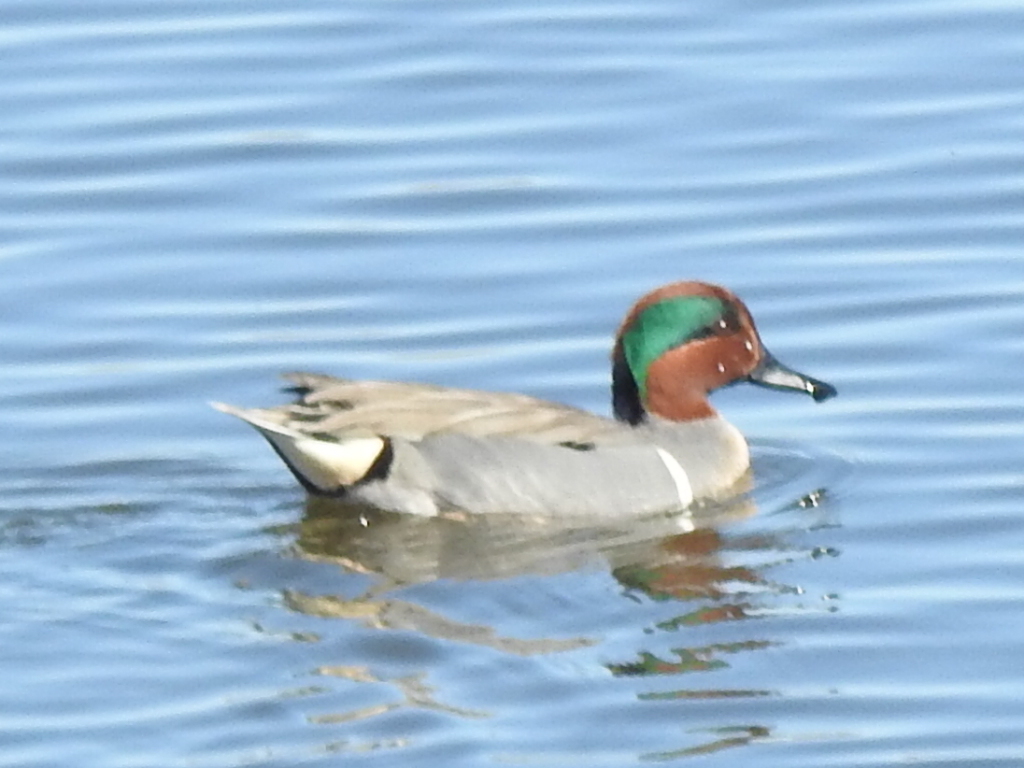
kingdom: Animalia
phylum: Chordata
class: Aves
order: Anseriformes
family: Anatidae
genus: Anas
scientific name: Anas crecca
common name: Eurasian teal
